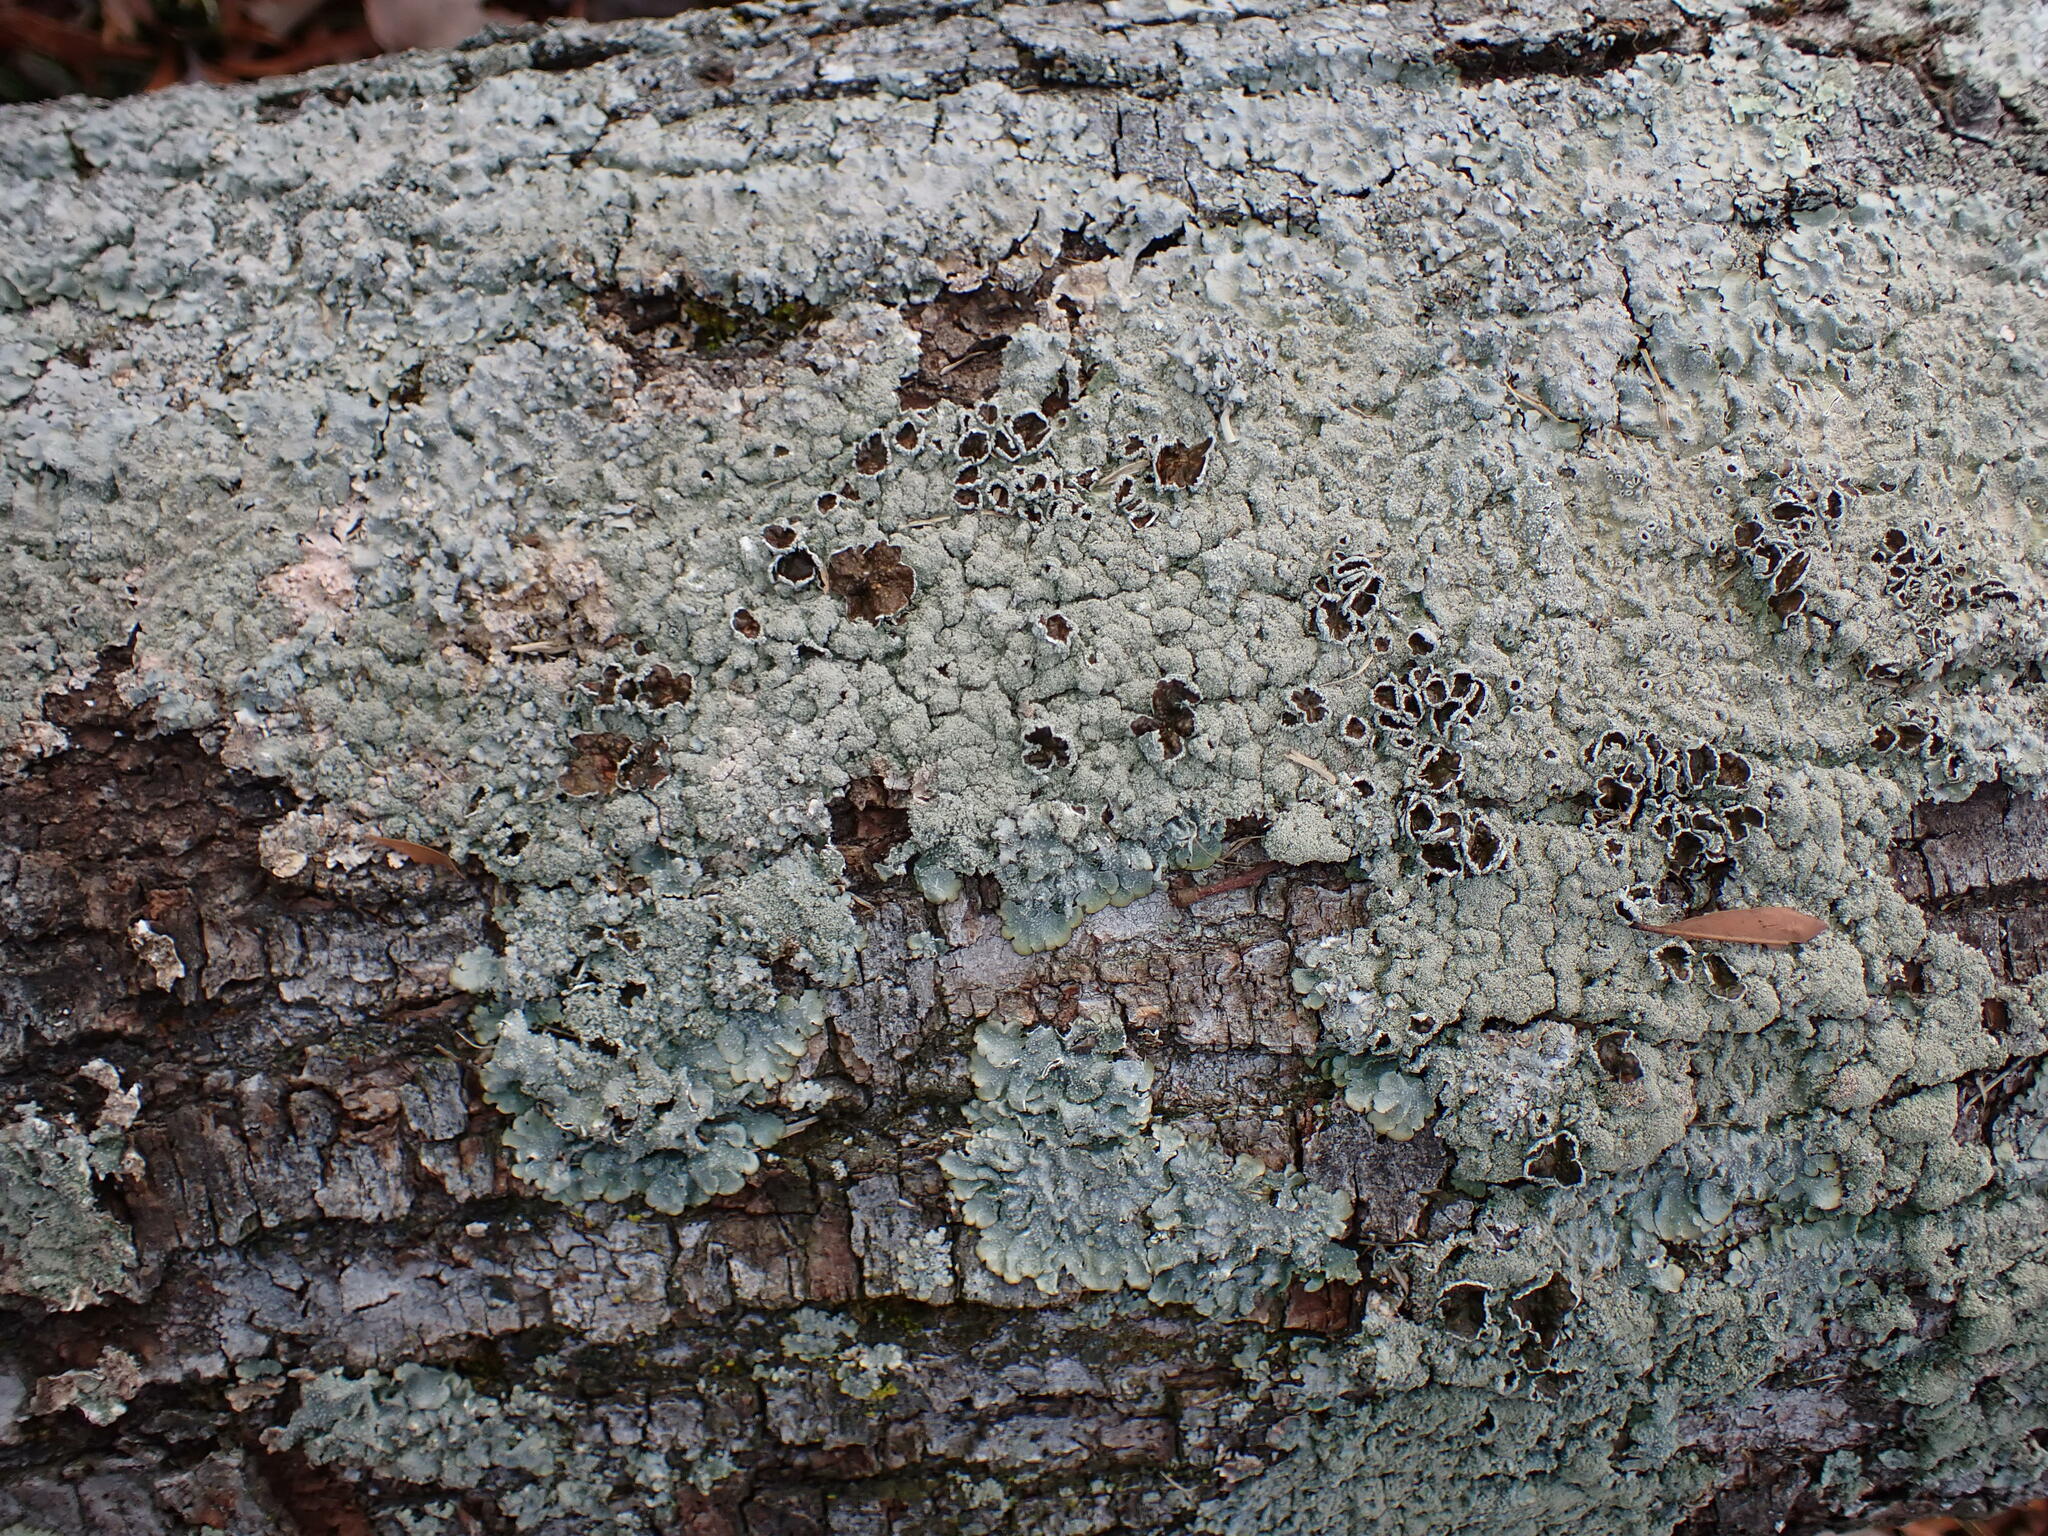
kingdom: Fungi
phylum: Ascomycota
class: Lecanoromycetes
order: Lecanorales
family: Parmeliaceae
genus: Punctelia
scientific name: Punctelia rudecta
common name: Rough speckled shield lichen
